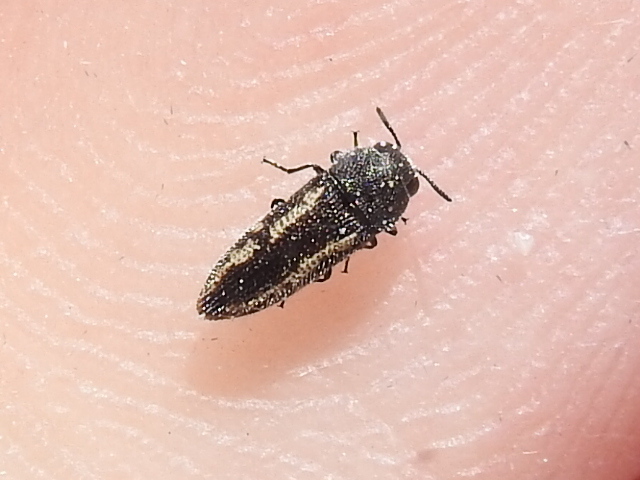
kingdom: Animalia
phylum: Arthropoda
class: Insecta
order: Coleoptera
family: Buprestidae
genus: Acmaeodera
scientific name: Acmaeodera neglecta
